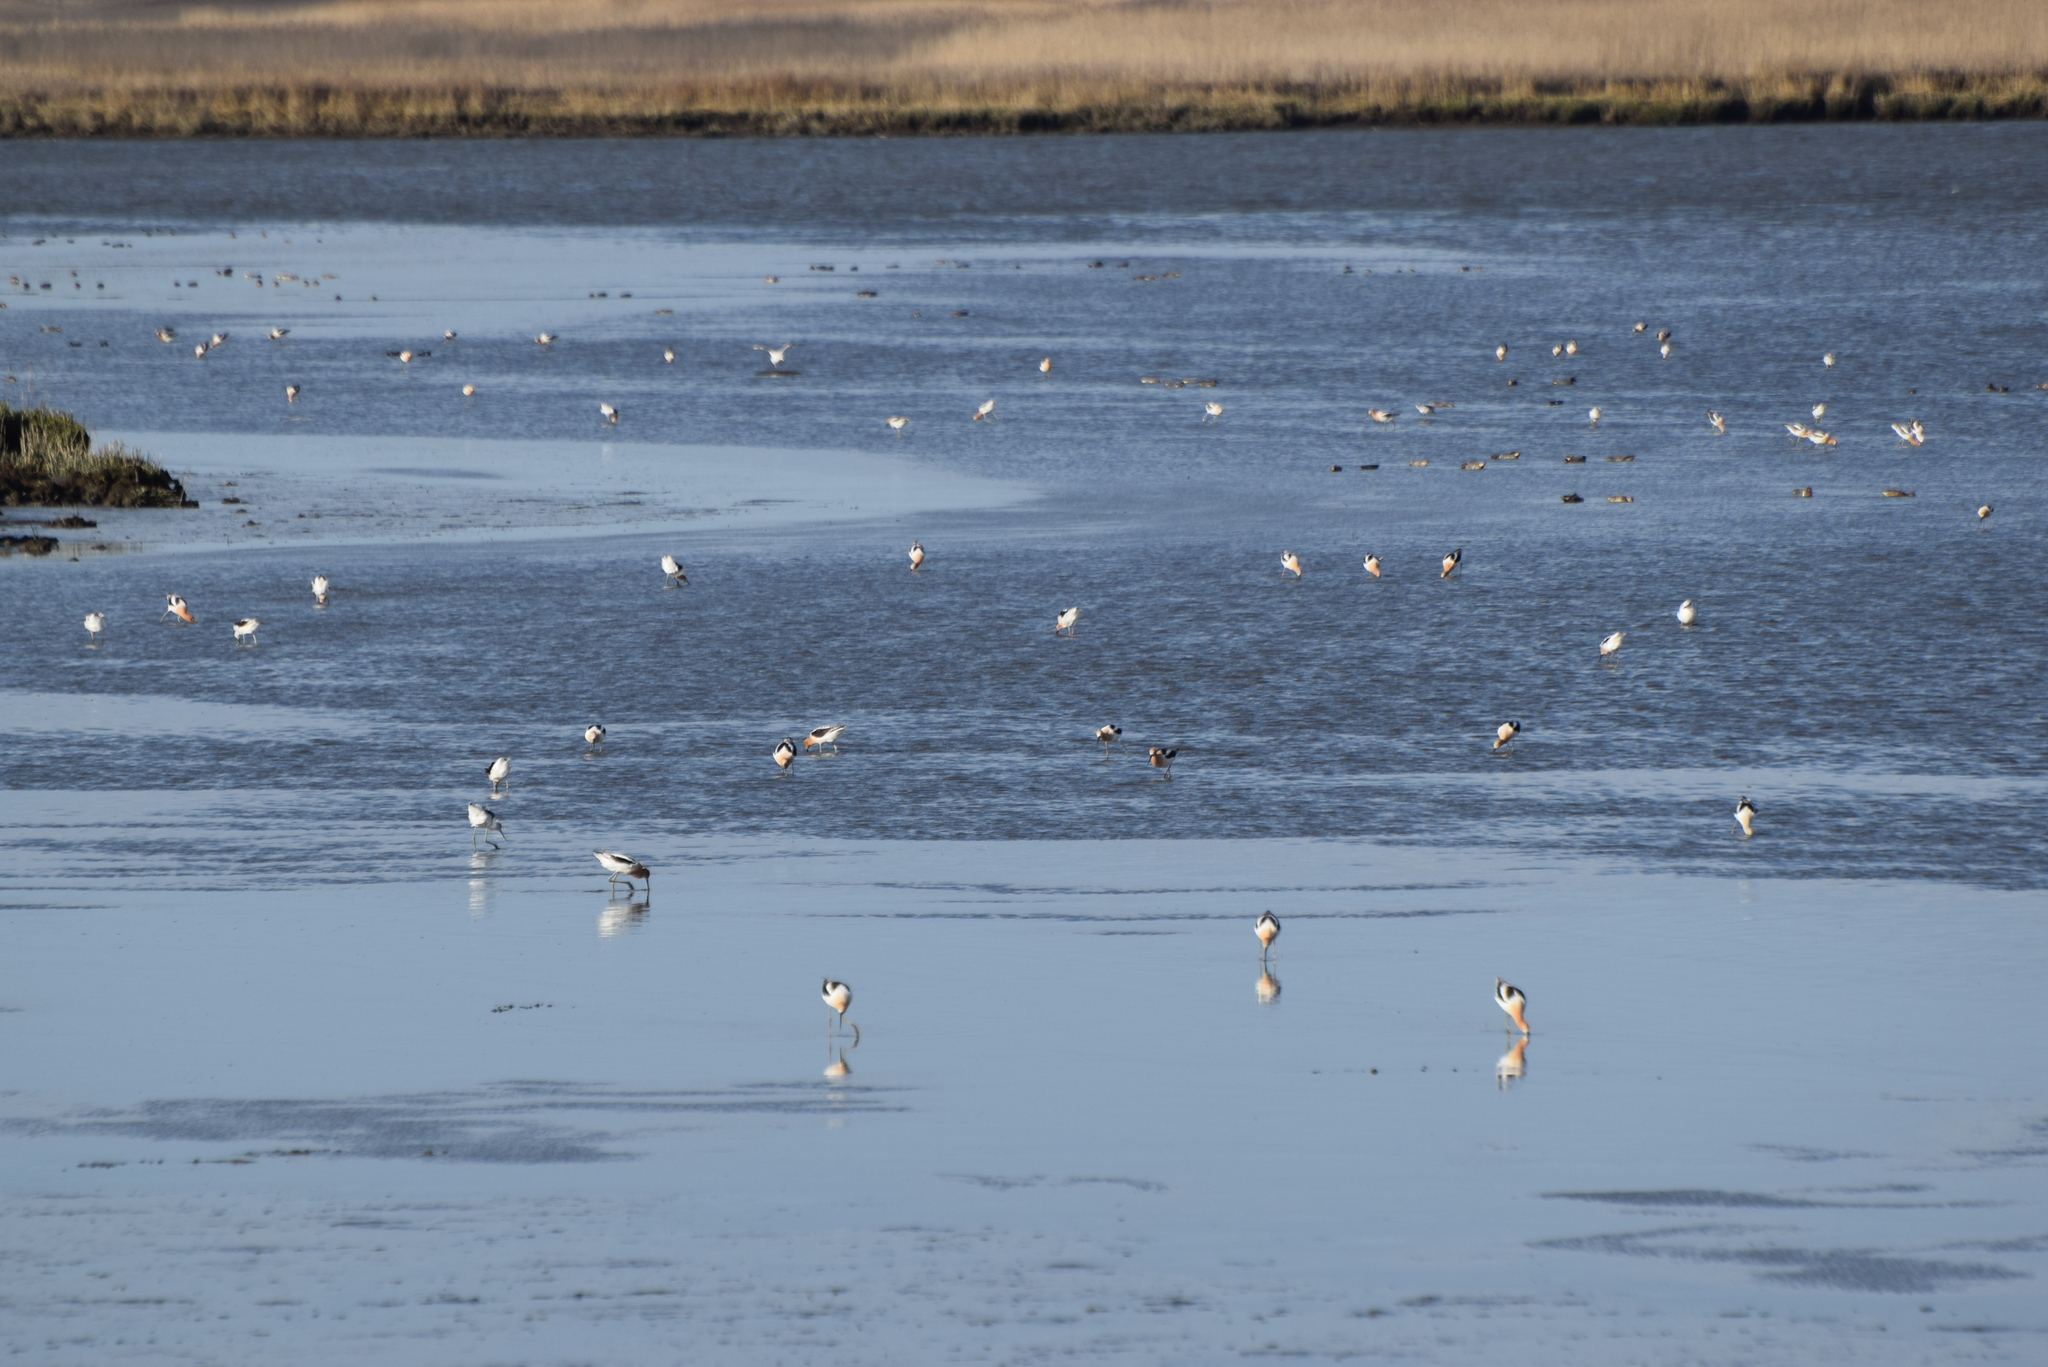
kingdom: Animalia
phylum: Chordata
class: Aves
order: Charadriiformes
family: Recurvirostridae
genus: Recurvirostra
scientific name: Recurvirostra americana
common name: American avocet
